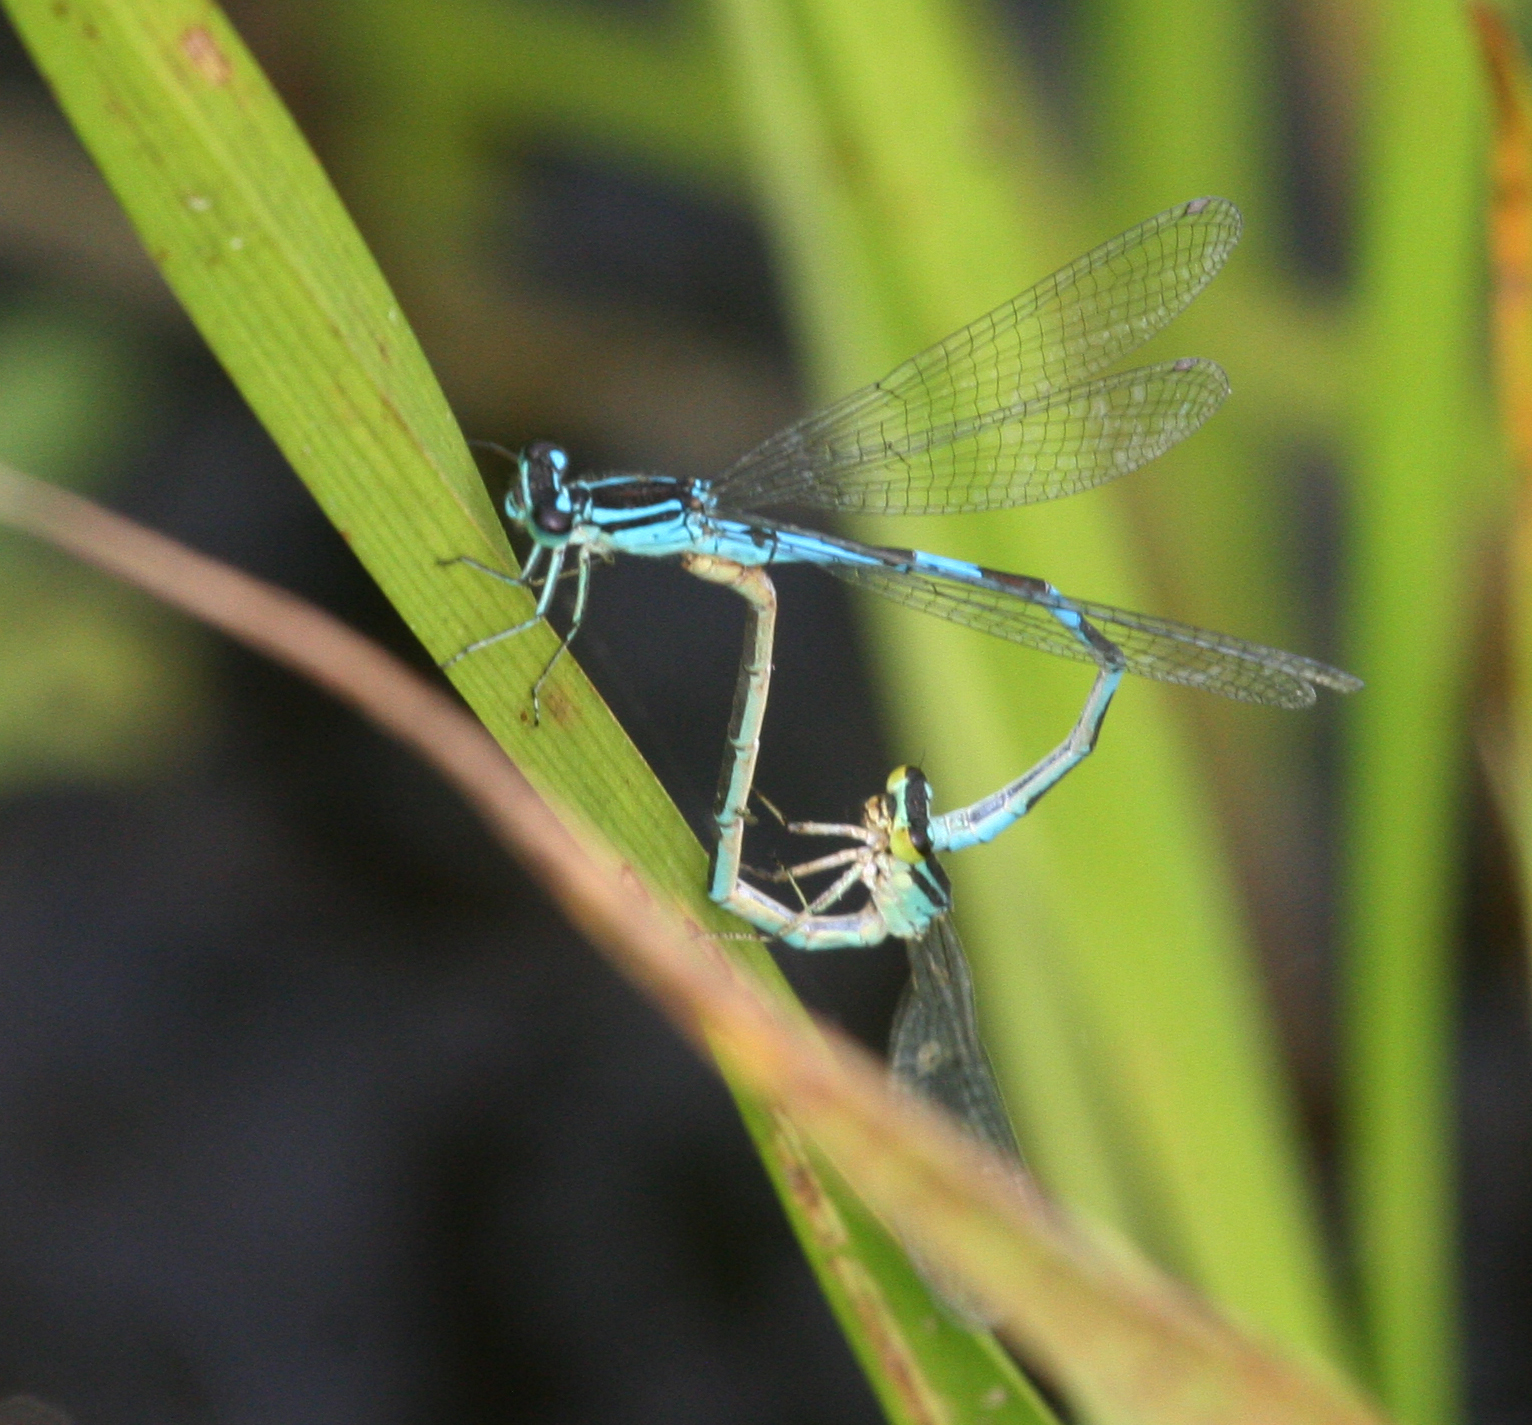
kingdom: Animalia
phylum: Arthropoda
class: Insecta
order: Odonata
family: Coenagrionidae
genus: Coenagrion
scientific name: Coenagrion lanceolatum
